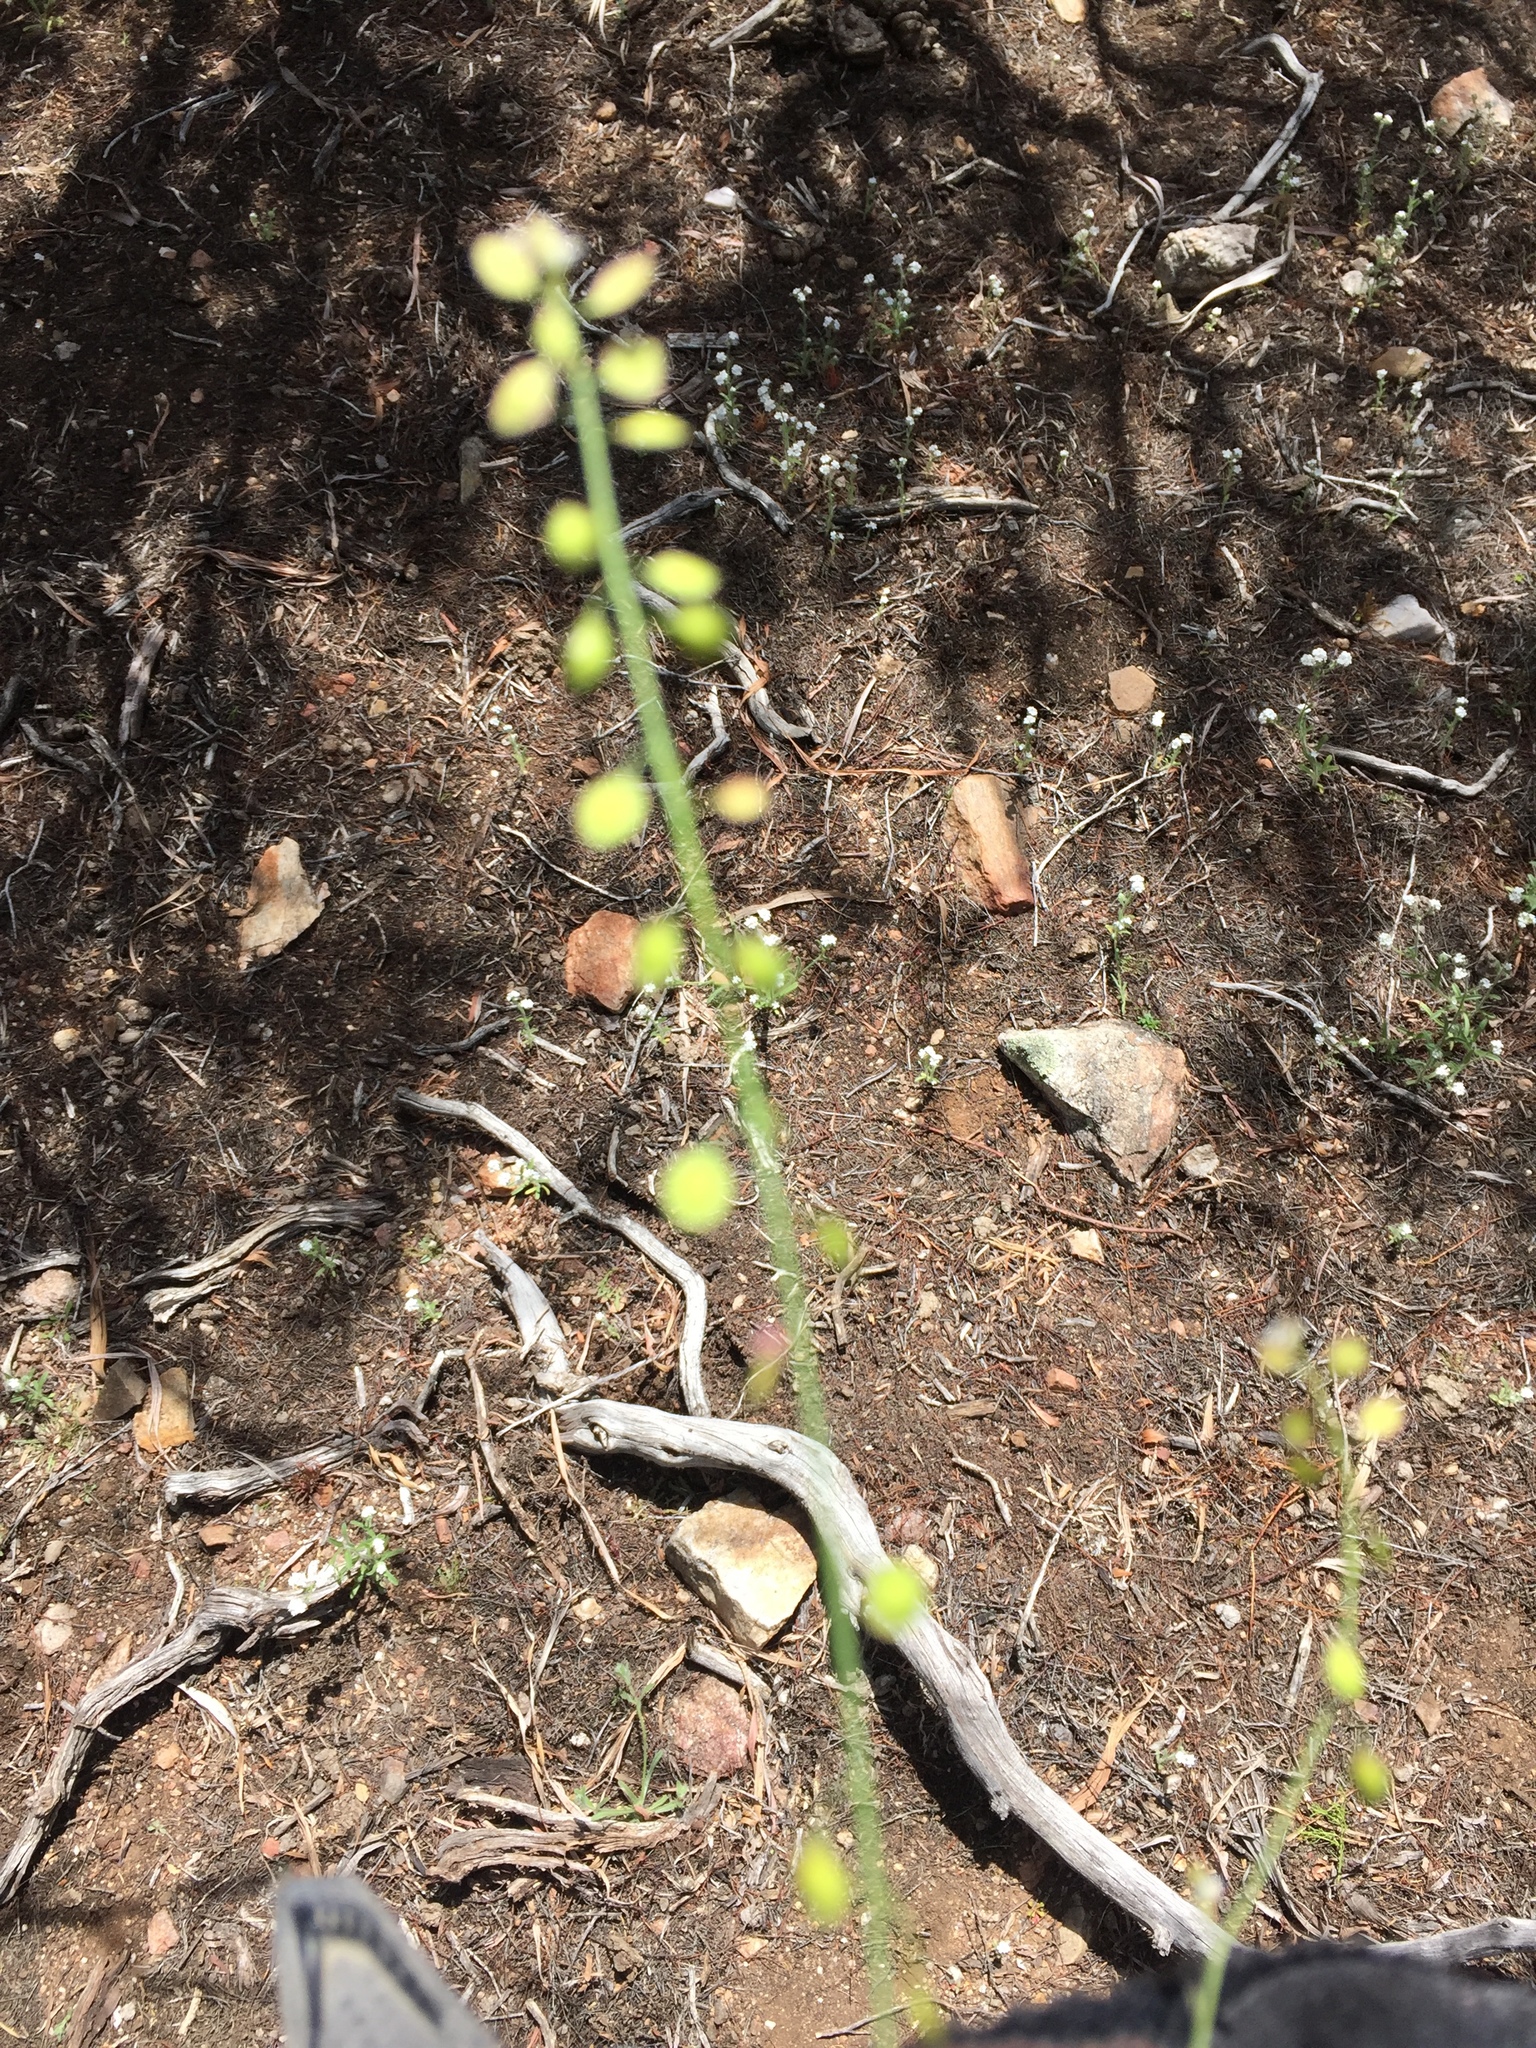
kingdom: Plantae
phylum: Tracheophyta
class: Magnoliopsida
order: Brassicales
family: Brassicaceae
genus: Thysanocarpus
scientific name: Thysanocarpus laciniatus
